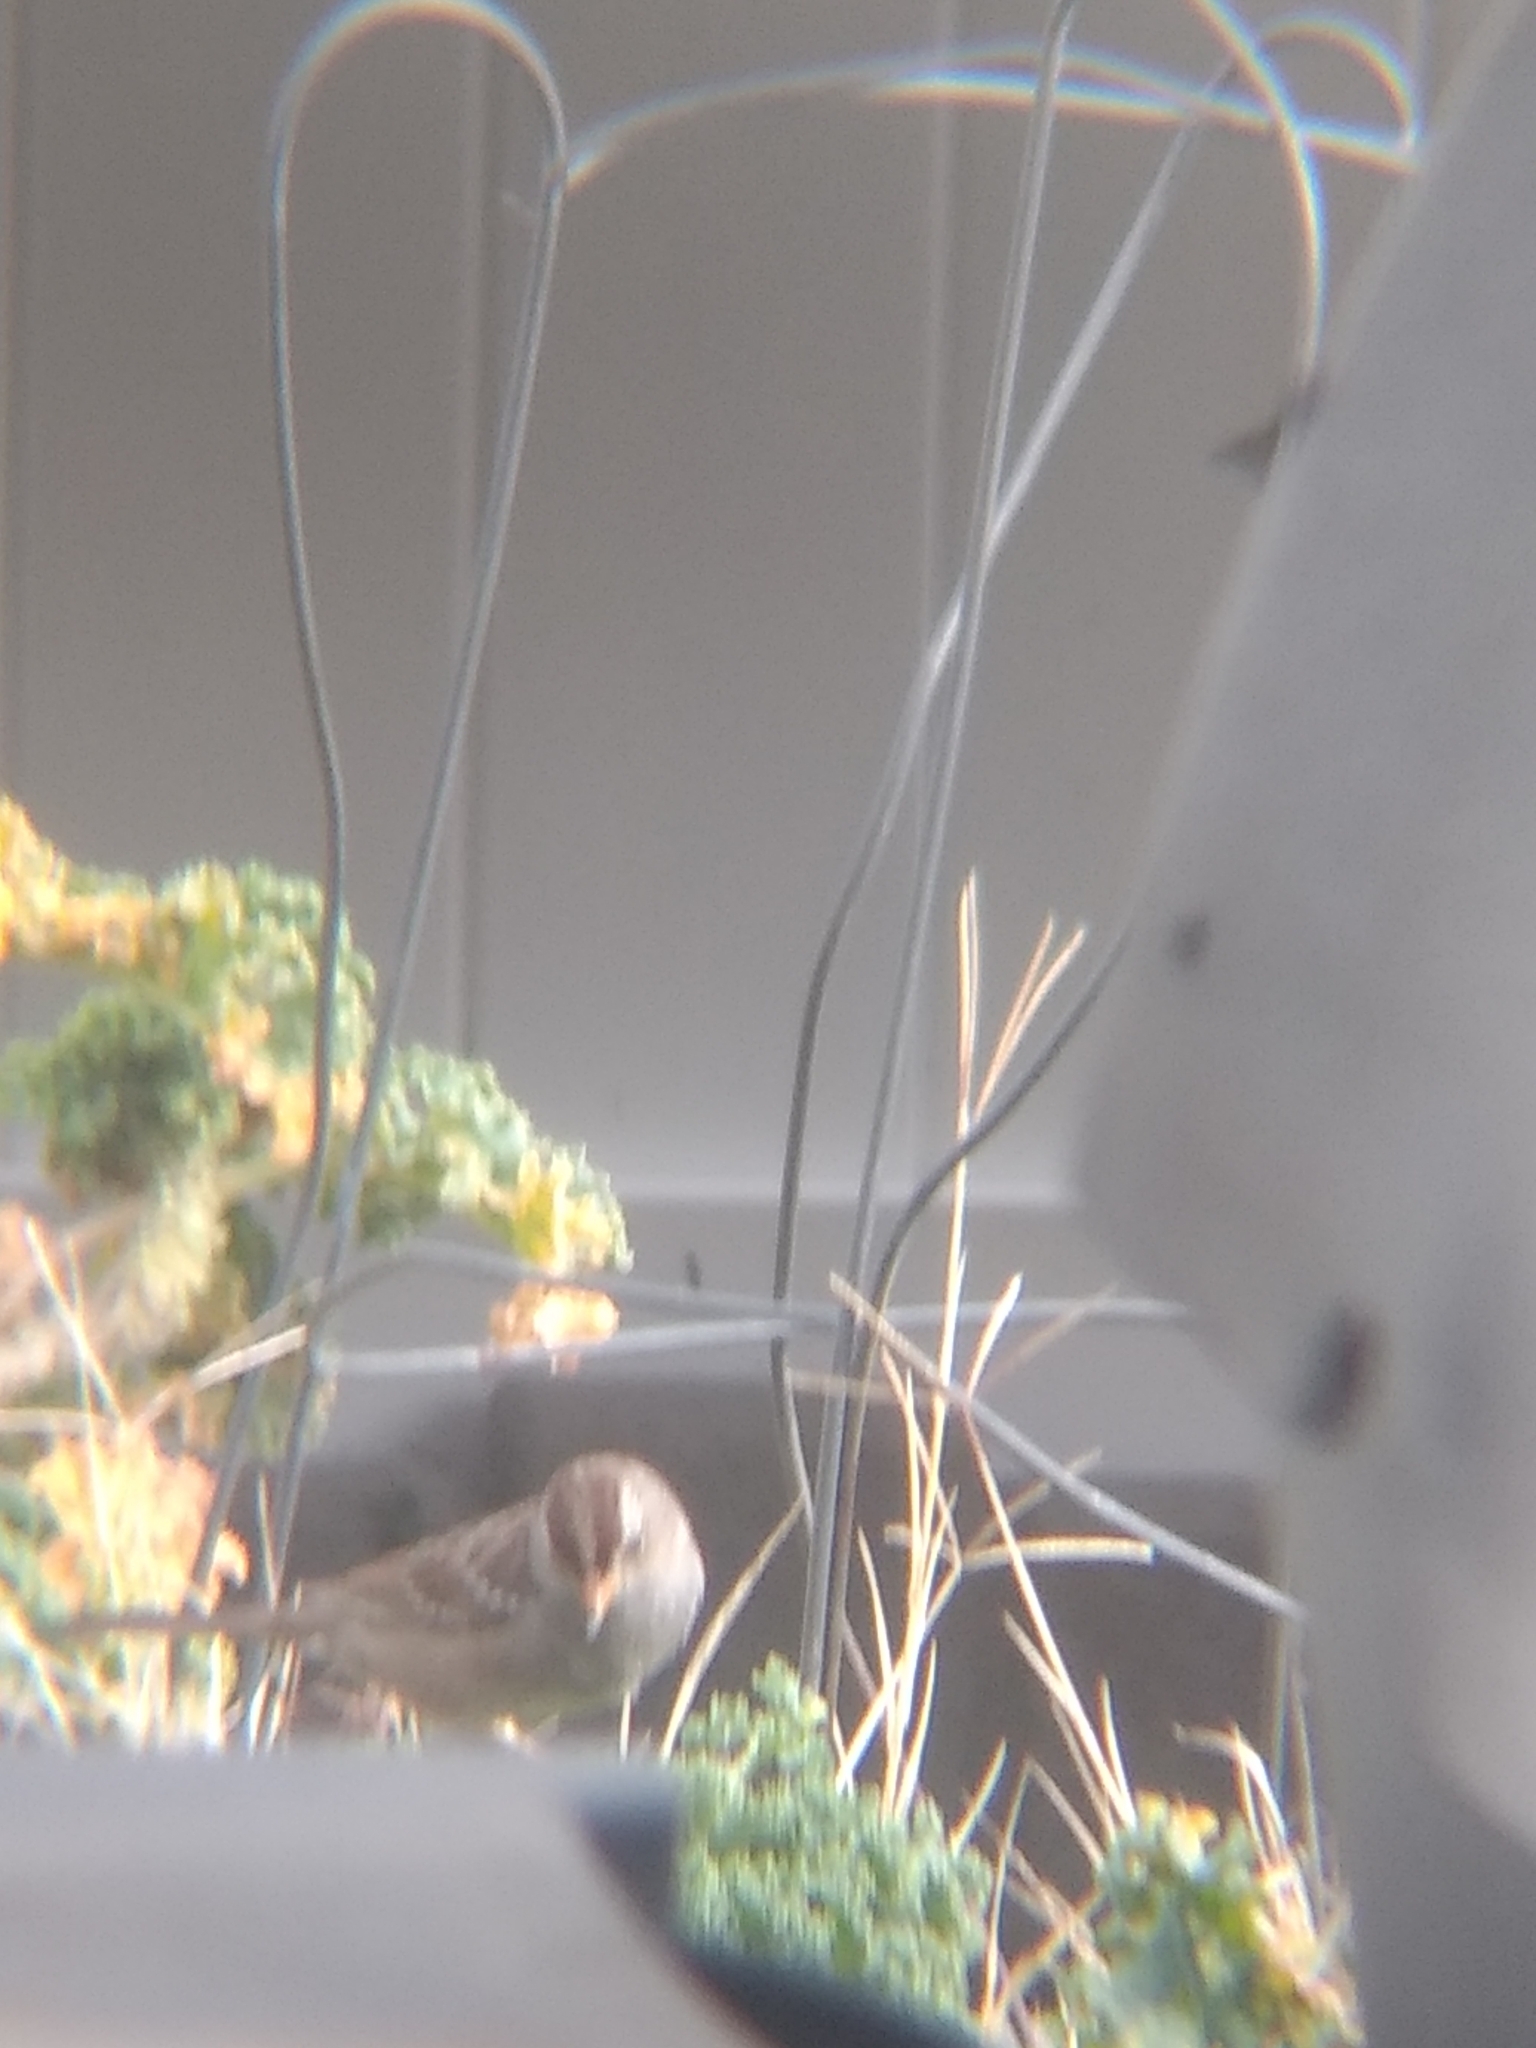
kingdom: Animalia
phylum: Chordata
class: Aves
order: Passeriformes
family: Passerellidae
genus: Zonotrichia
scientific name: Zonotrichia leucophrys
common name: White-crowned sparrow
